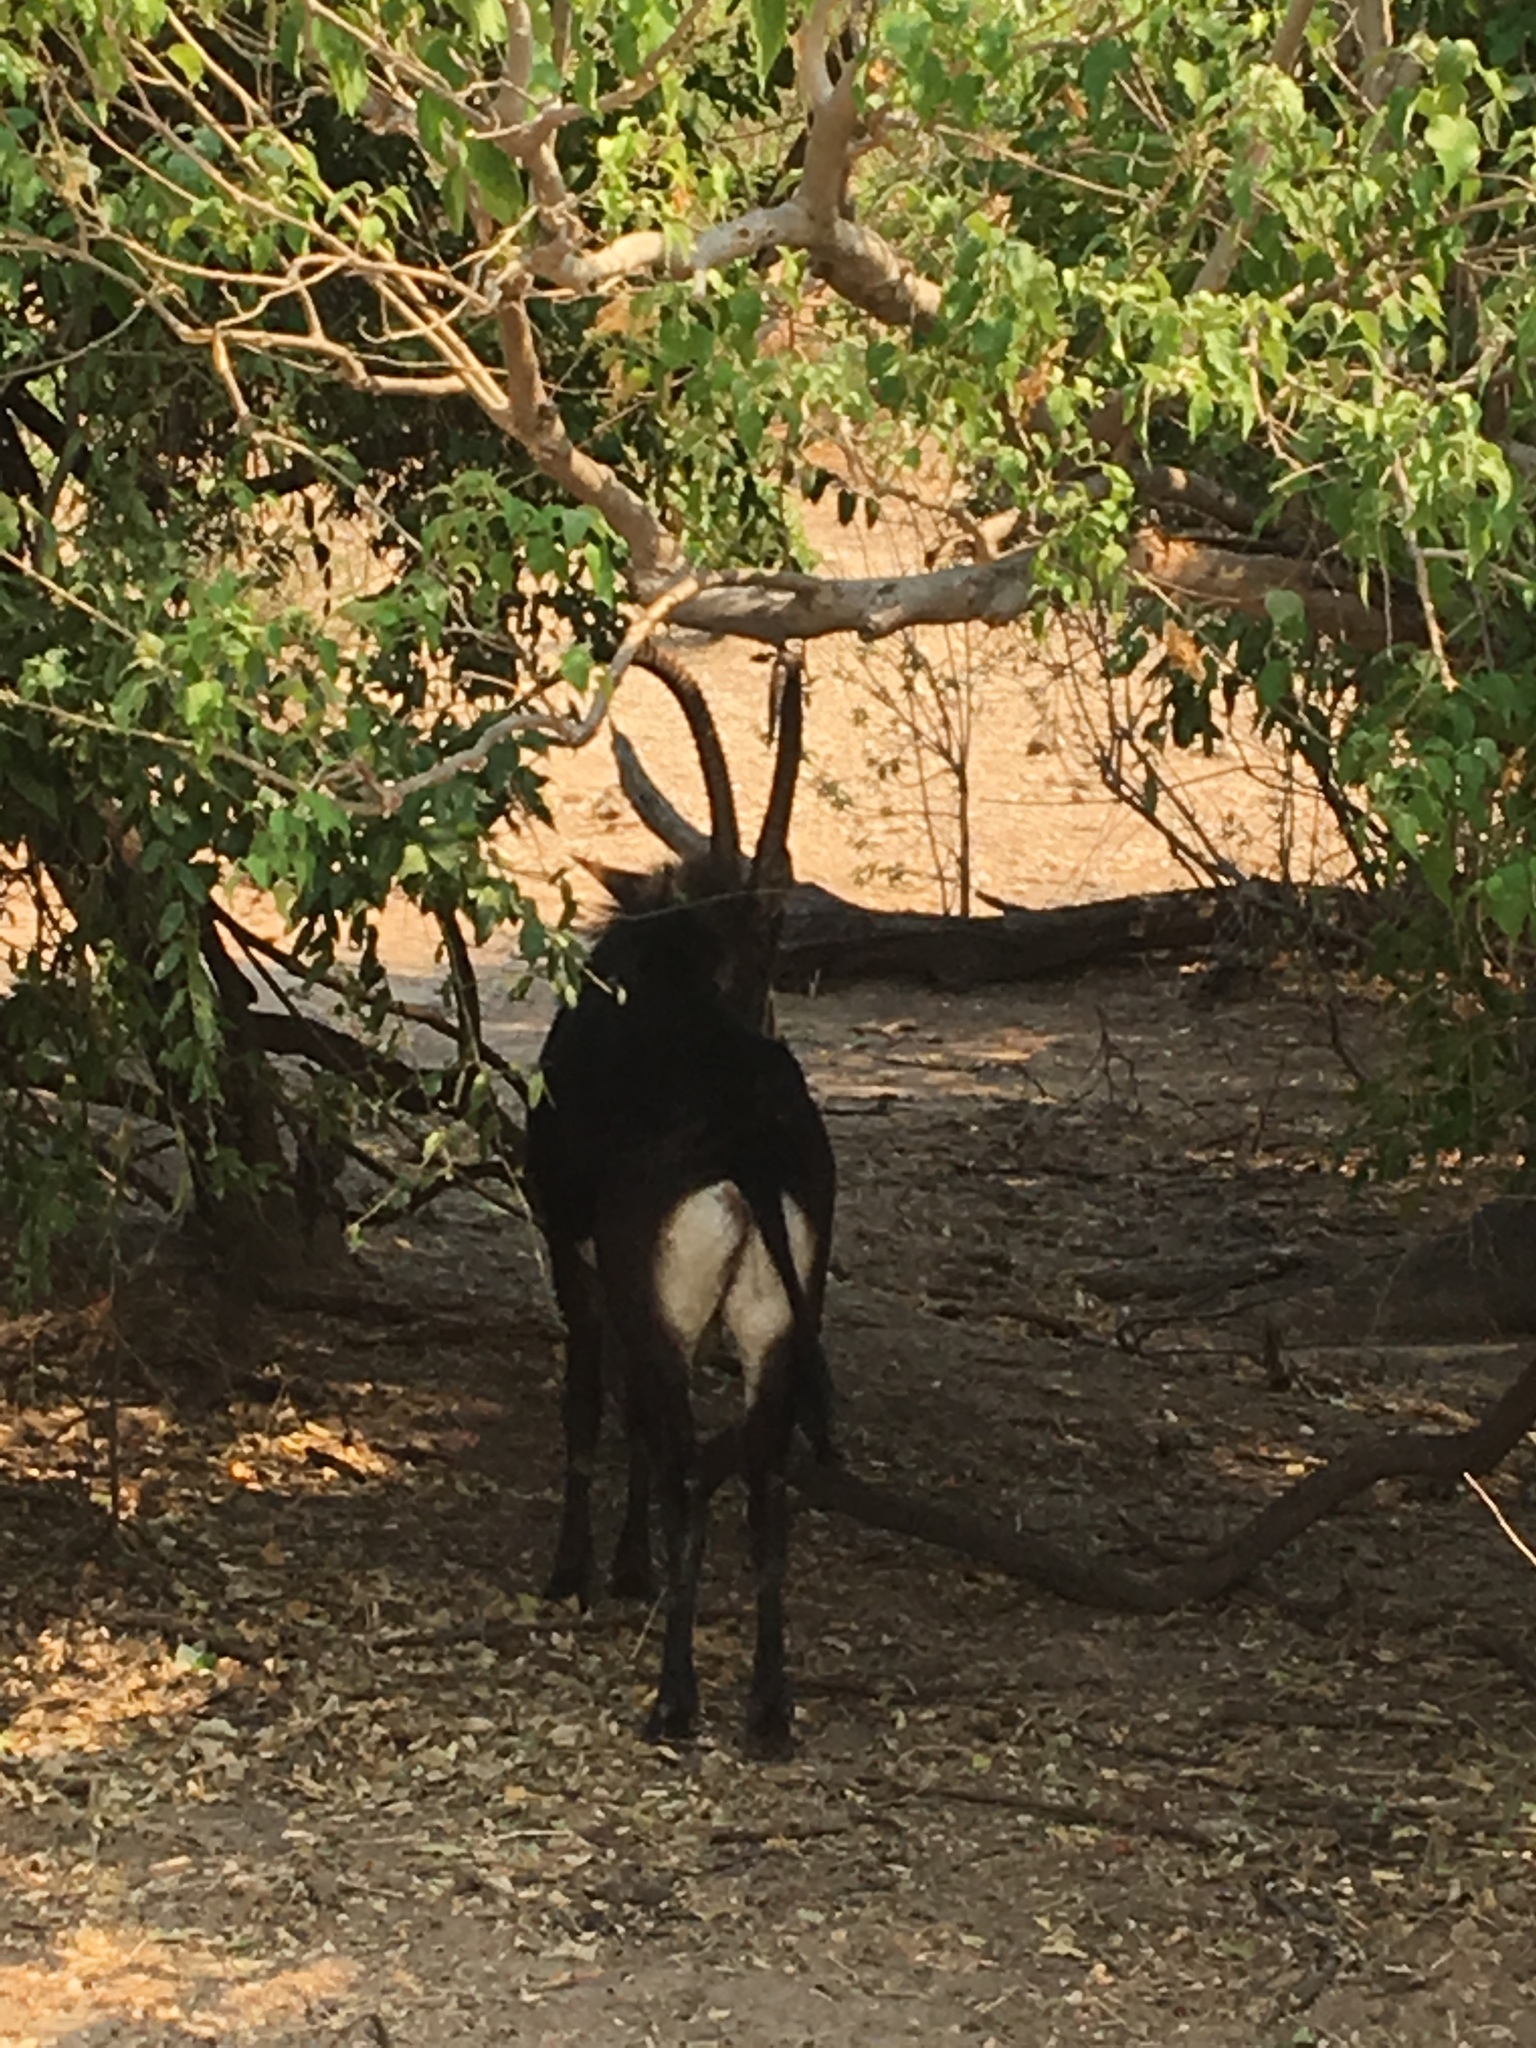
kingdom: Animalia
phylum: Chordata
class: Mammalia
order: Artiodactyla
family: Bovidae
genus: Hippotragus
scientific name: Hippotragus niger
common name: Sable antelope
